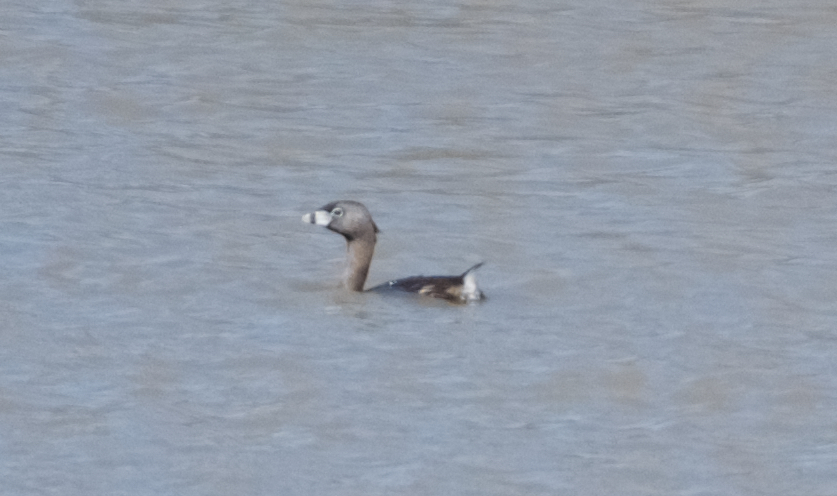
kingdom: Animalia
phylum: Chordata
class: Aves
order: Podicipediformes
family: Podicipedidae
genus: Podilymbus
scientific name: Podilymbus podiceps
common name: Pied-billed grebe
